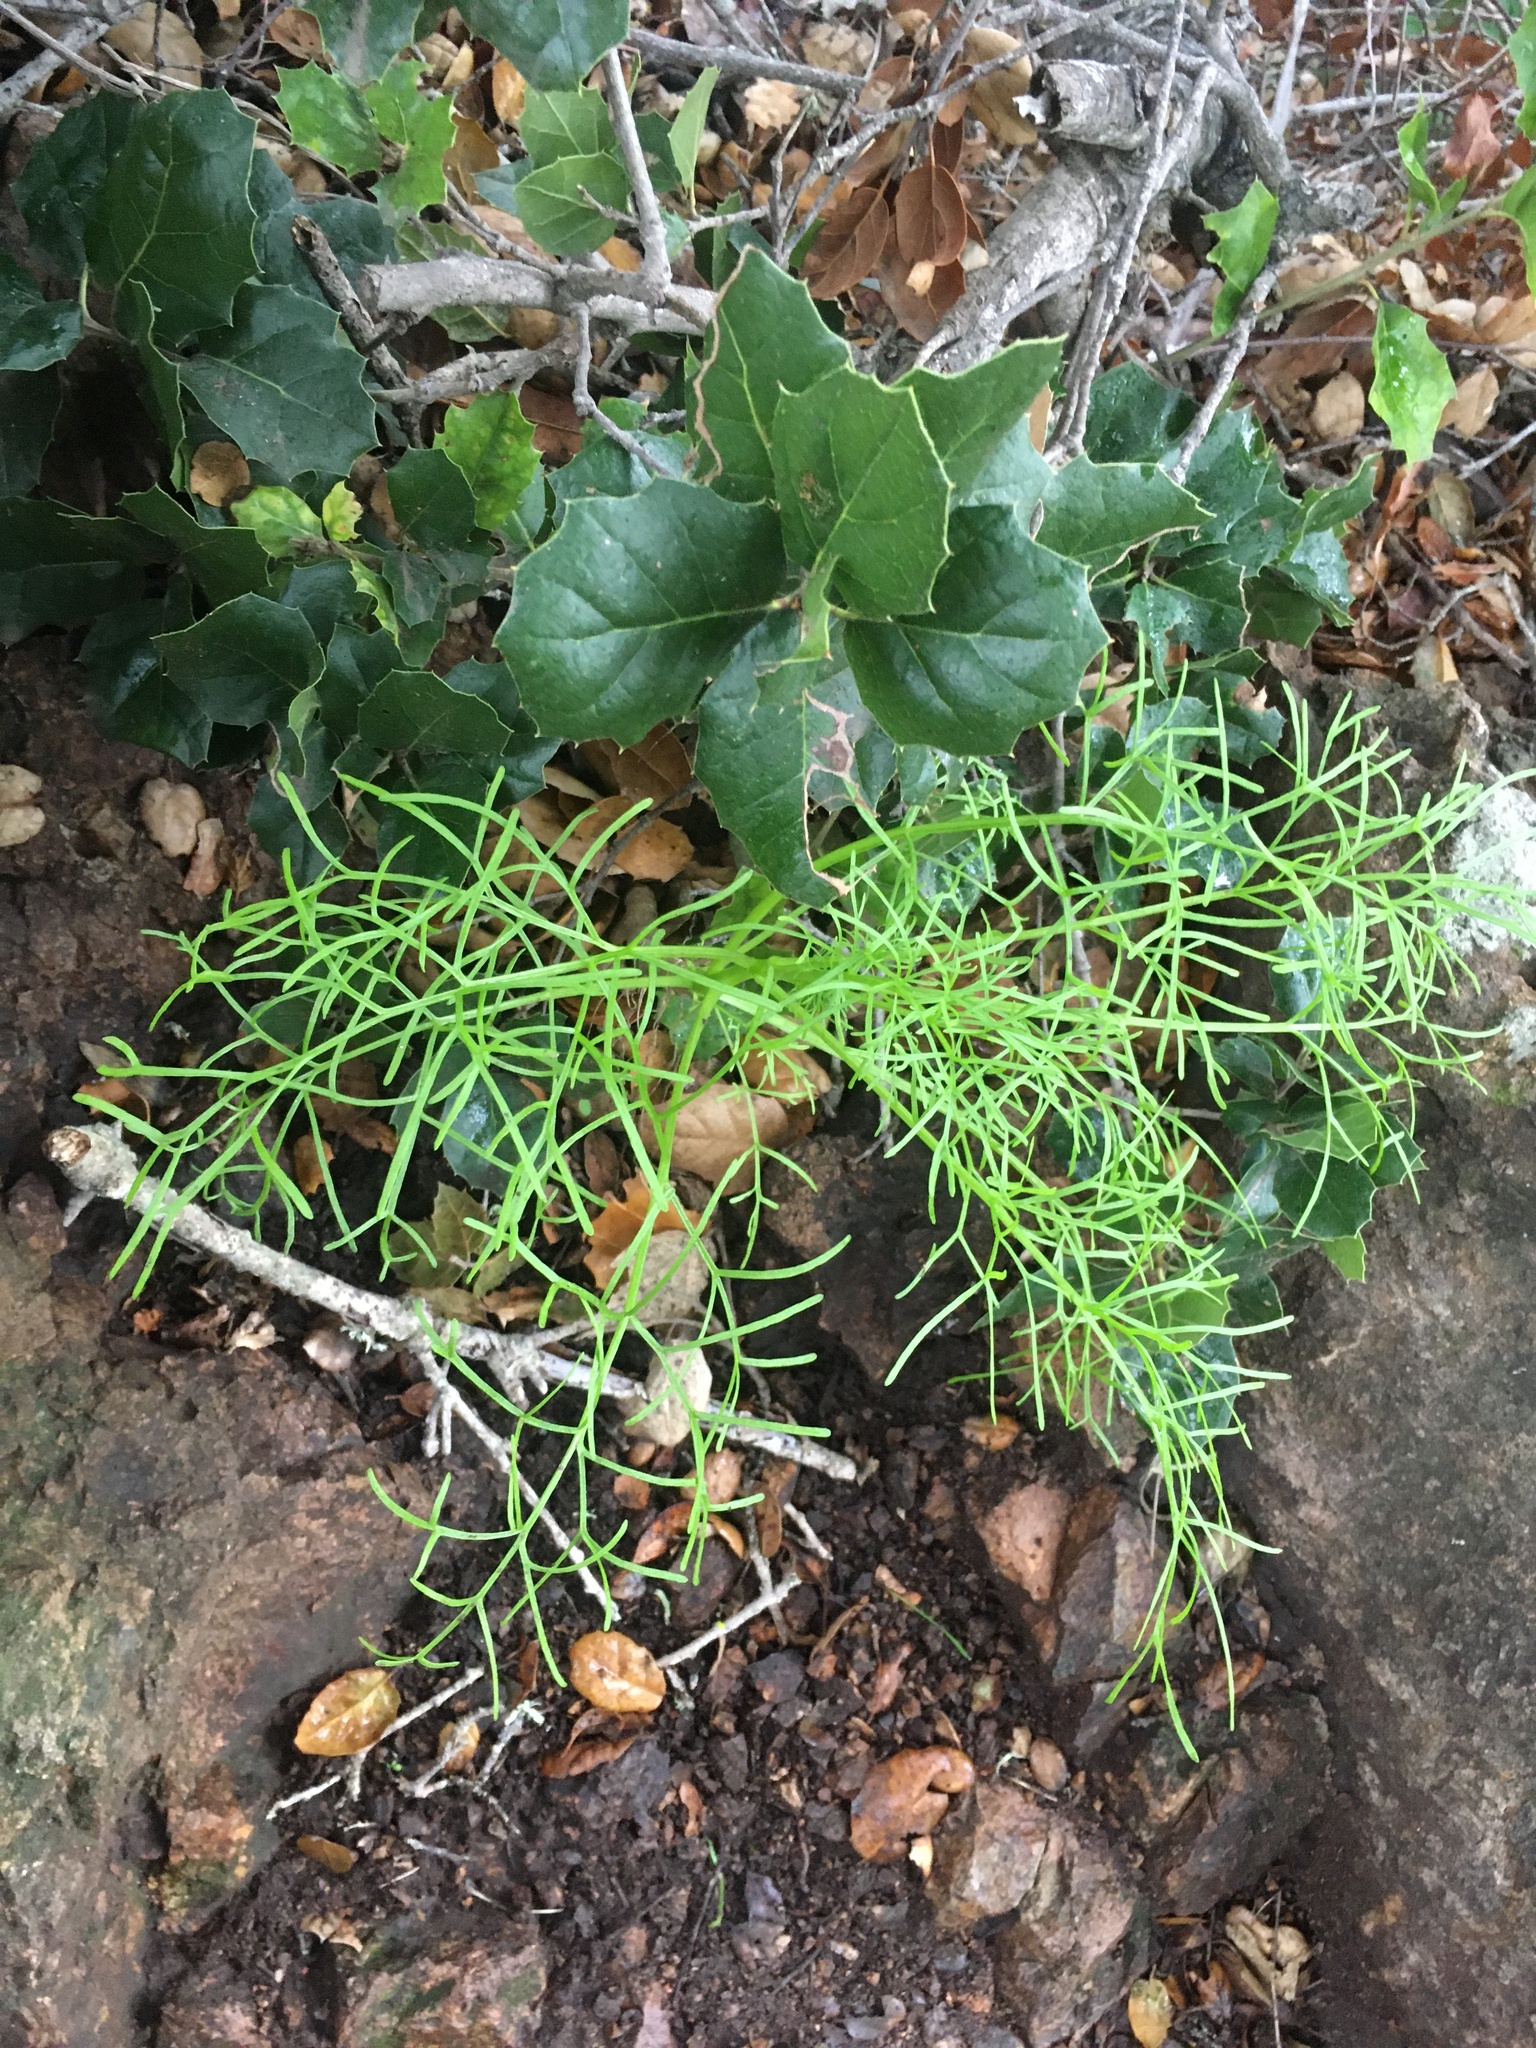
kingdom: Plantae
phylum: Tracheophyta
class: Magnoliopsida
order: Asterales
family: Asteraceae
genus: Coreopsis
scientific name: Coreopsis gigantea
